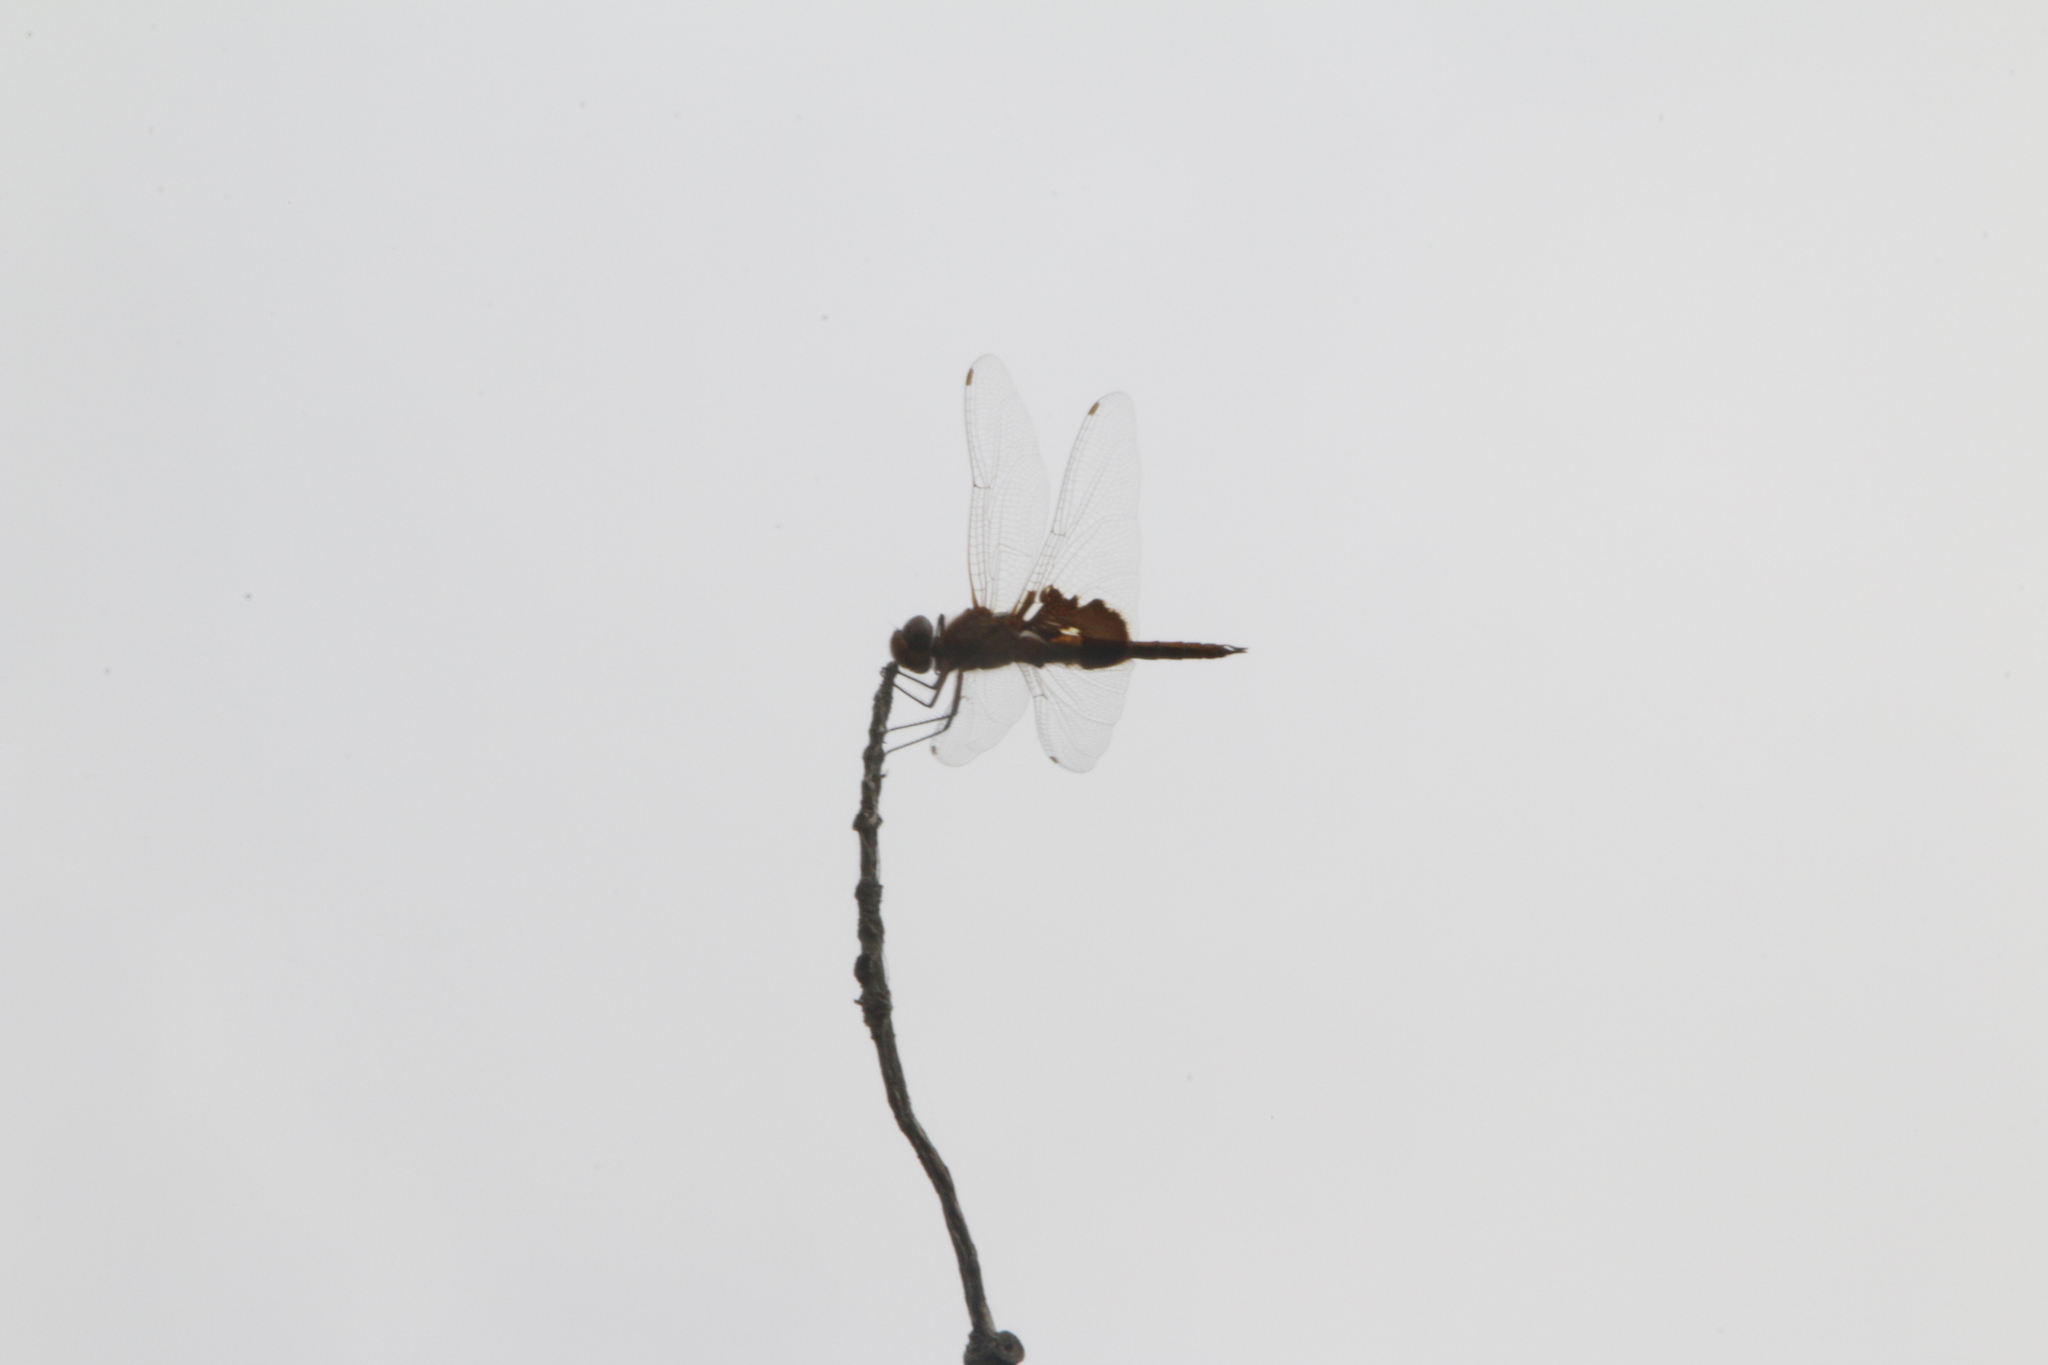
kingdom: Animalia
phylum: Arthropoda
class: Insecta
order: Odonata
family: Libellulidae
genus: Tramea
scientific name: Tramea onusta
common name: Red saddlebags
